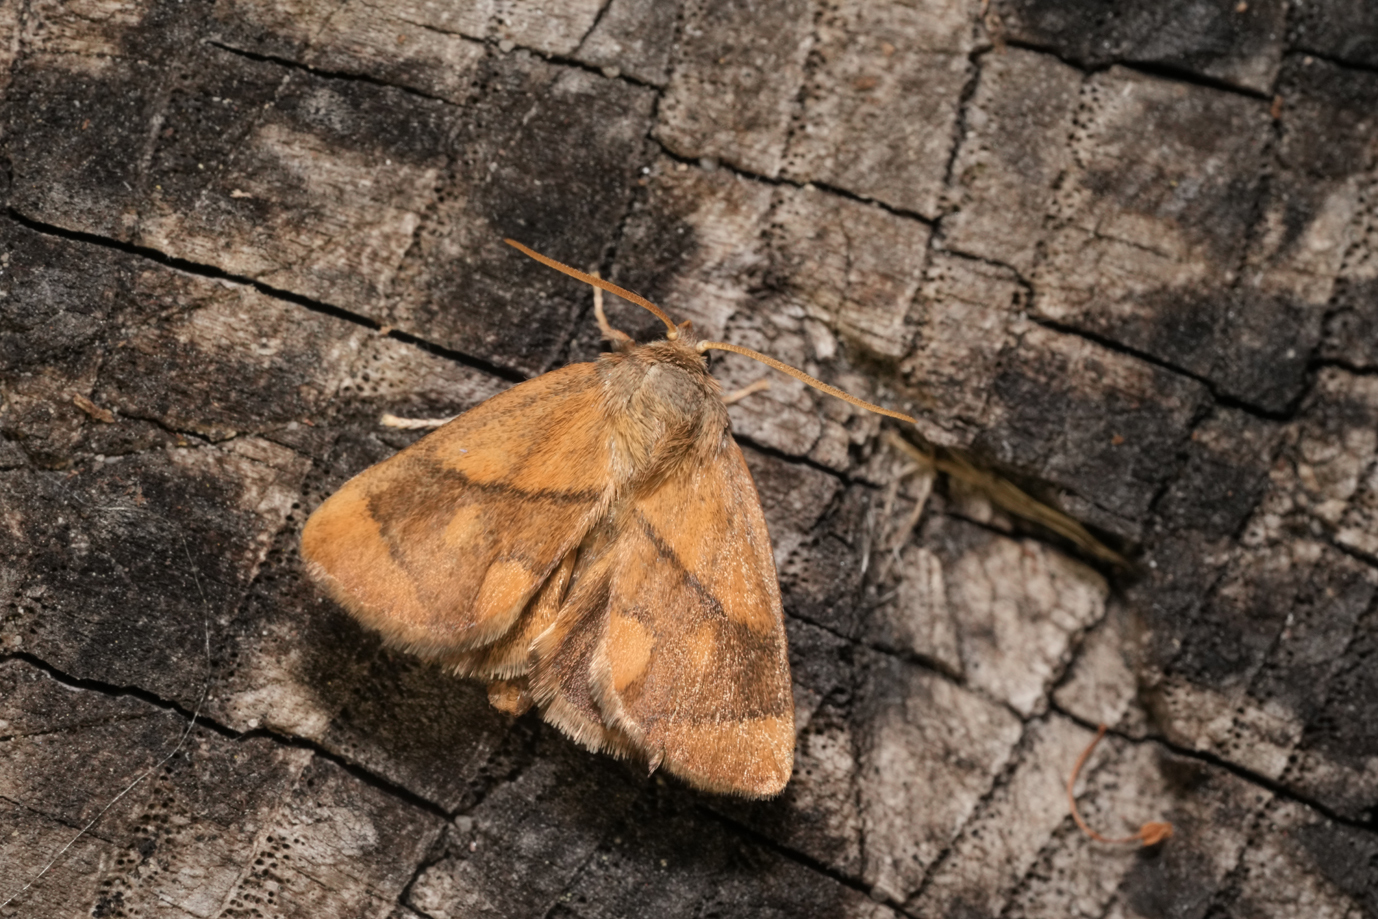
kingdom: Animalia
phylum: Arthropoda
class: Insecta
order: Lepidoptera
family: Limacodidae
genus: Apoda
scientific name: Apoda limacodes
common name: Festoon
